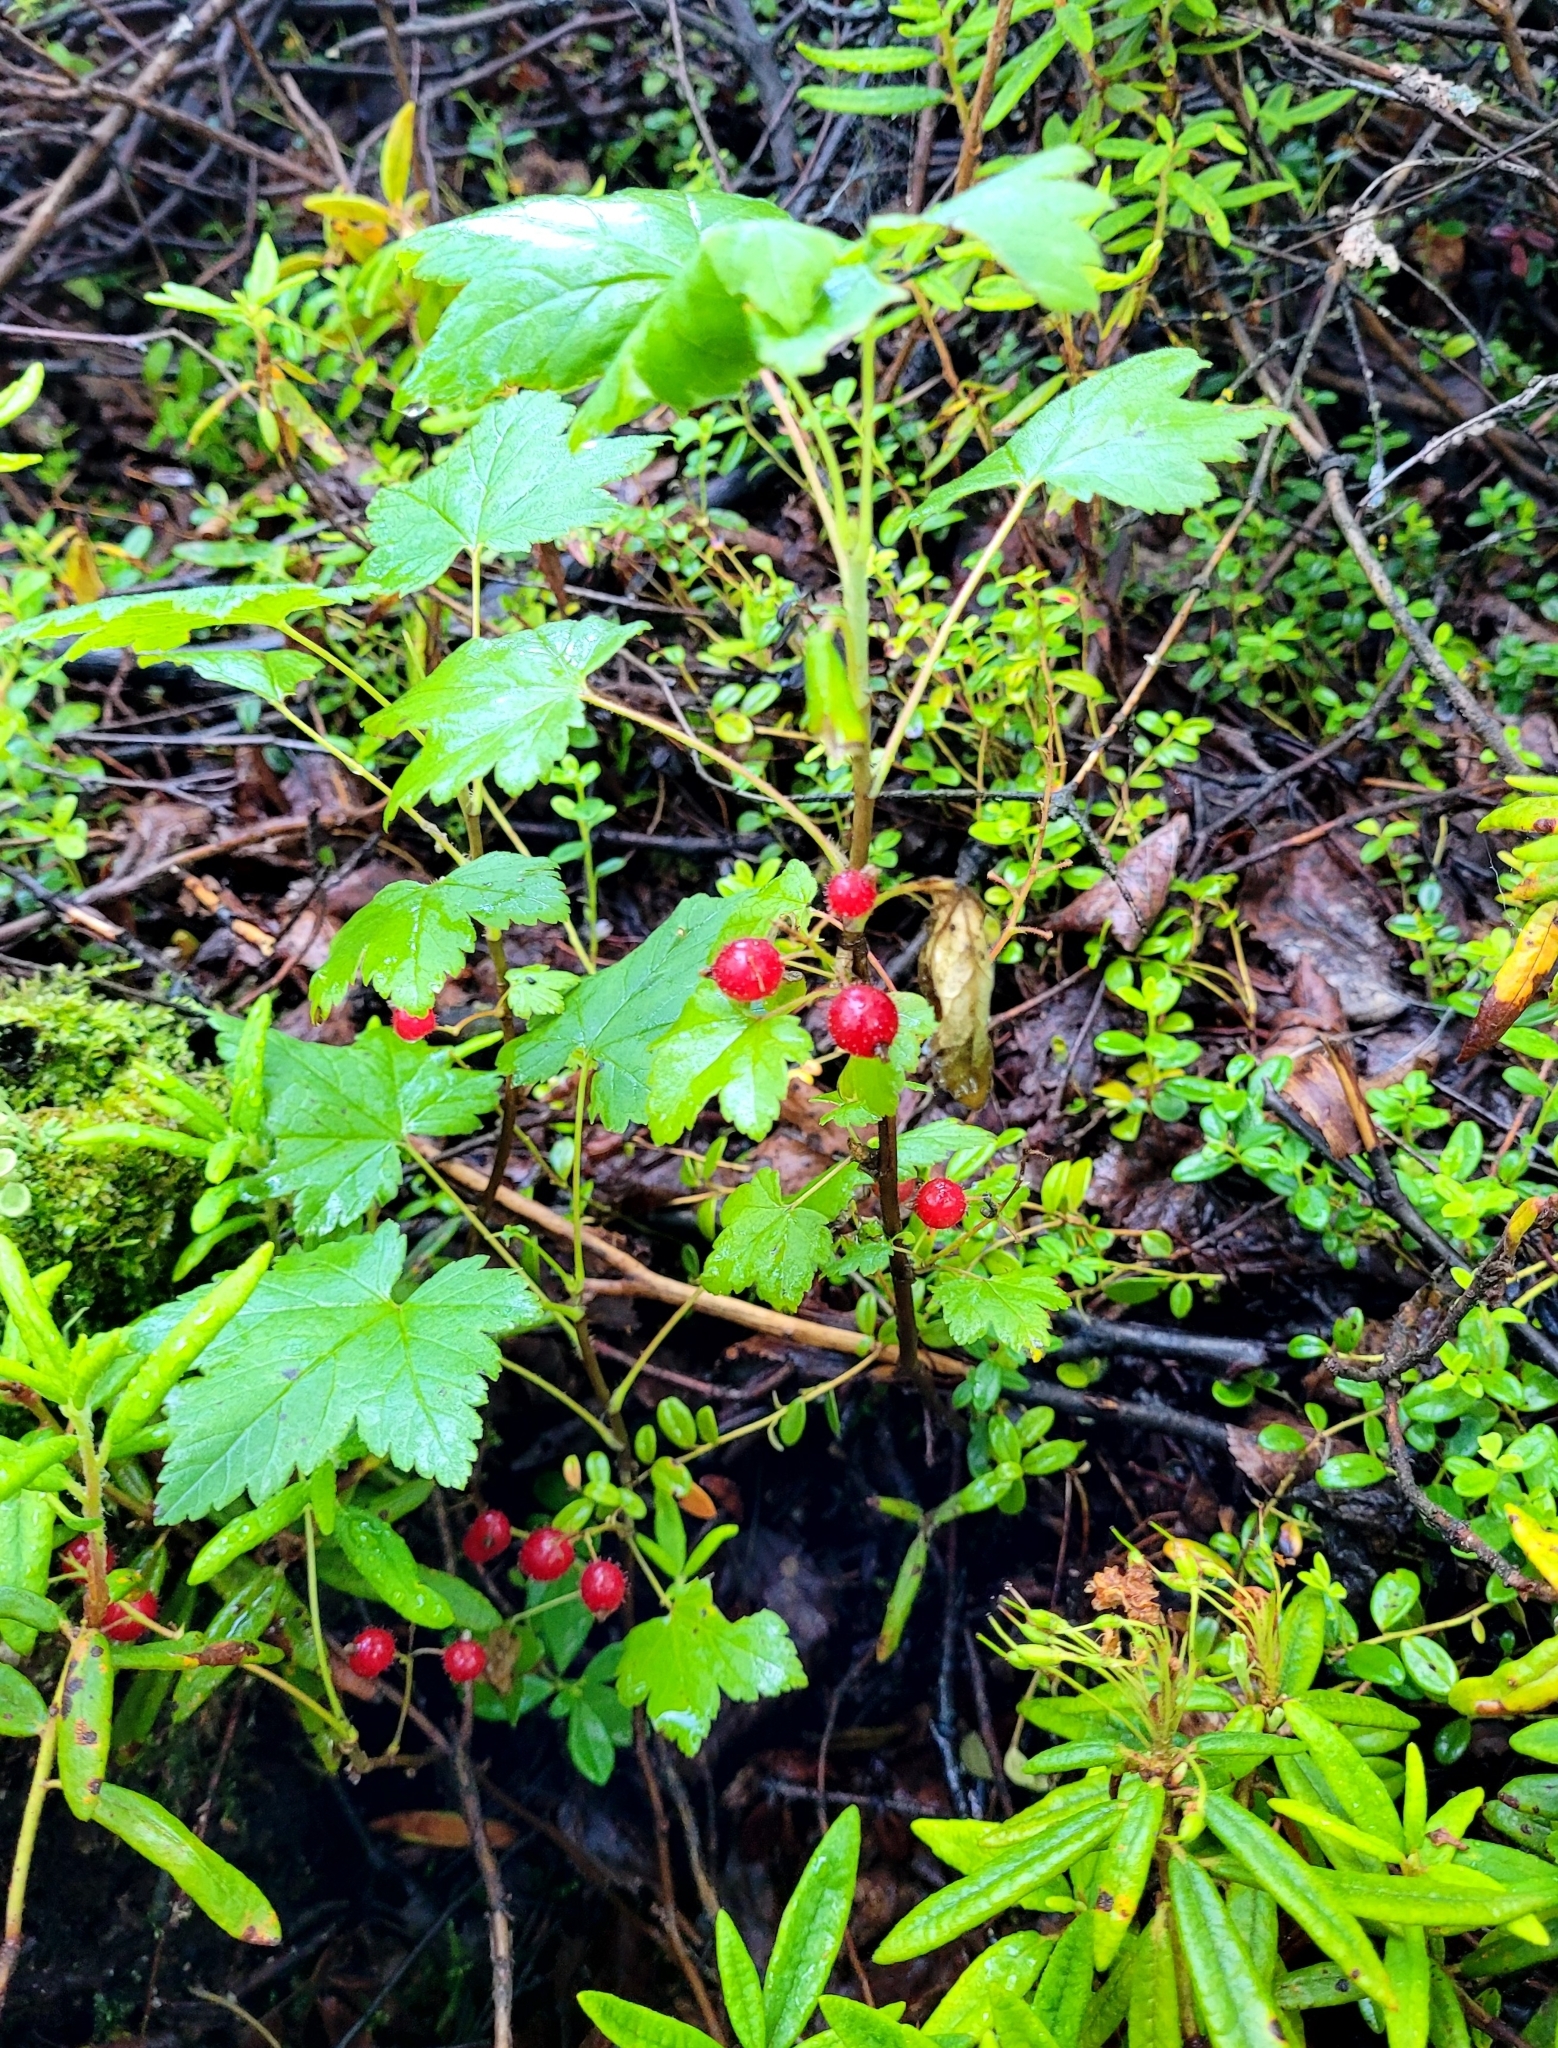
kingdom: Plantae
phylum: Tracheophyta
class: Magnoliopsida
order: Saxifragales
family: Grossulariaceae
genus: Ribes
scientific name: Ribes glandulosum
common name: Skunk currant
